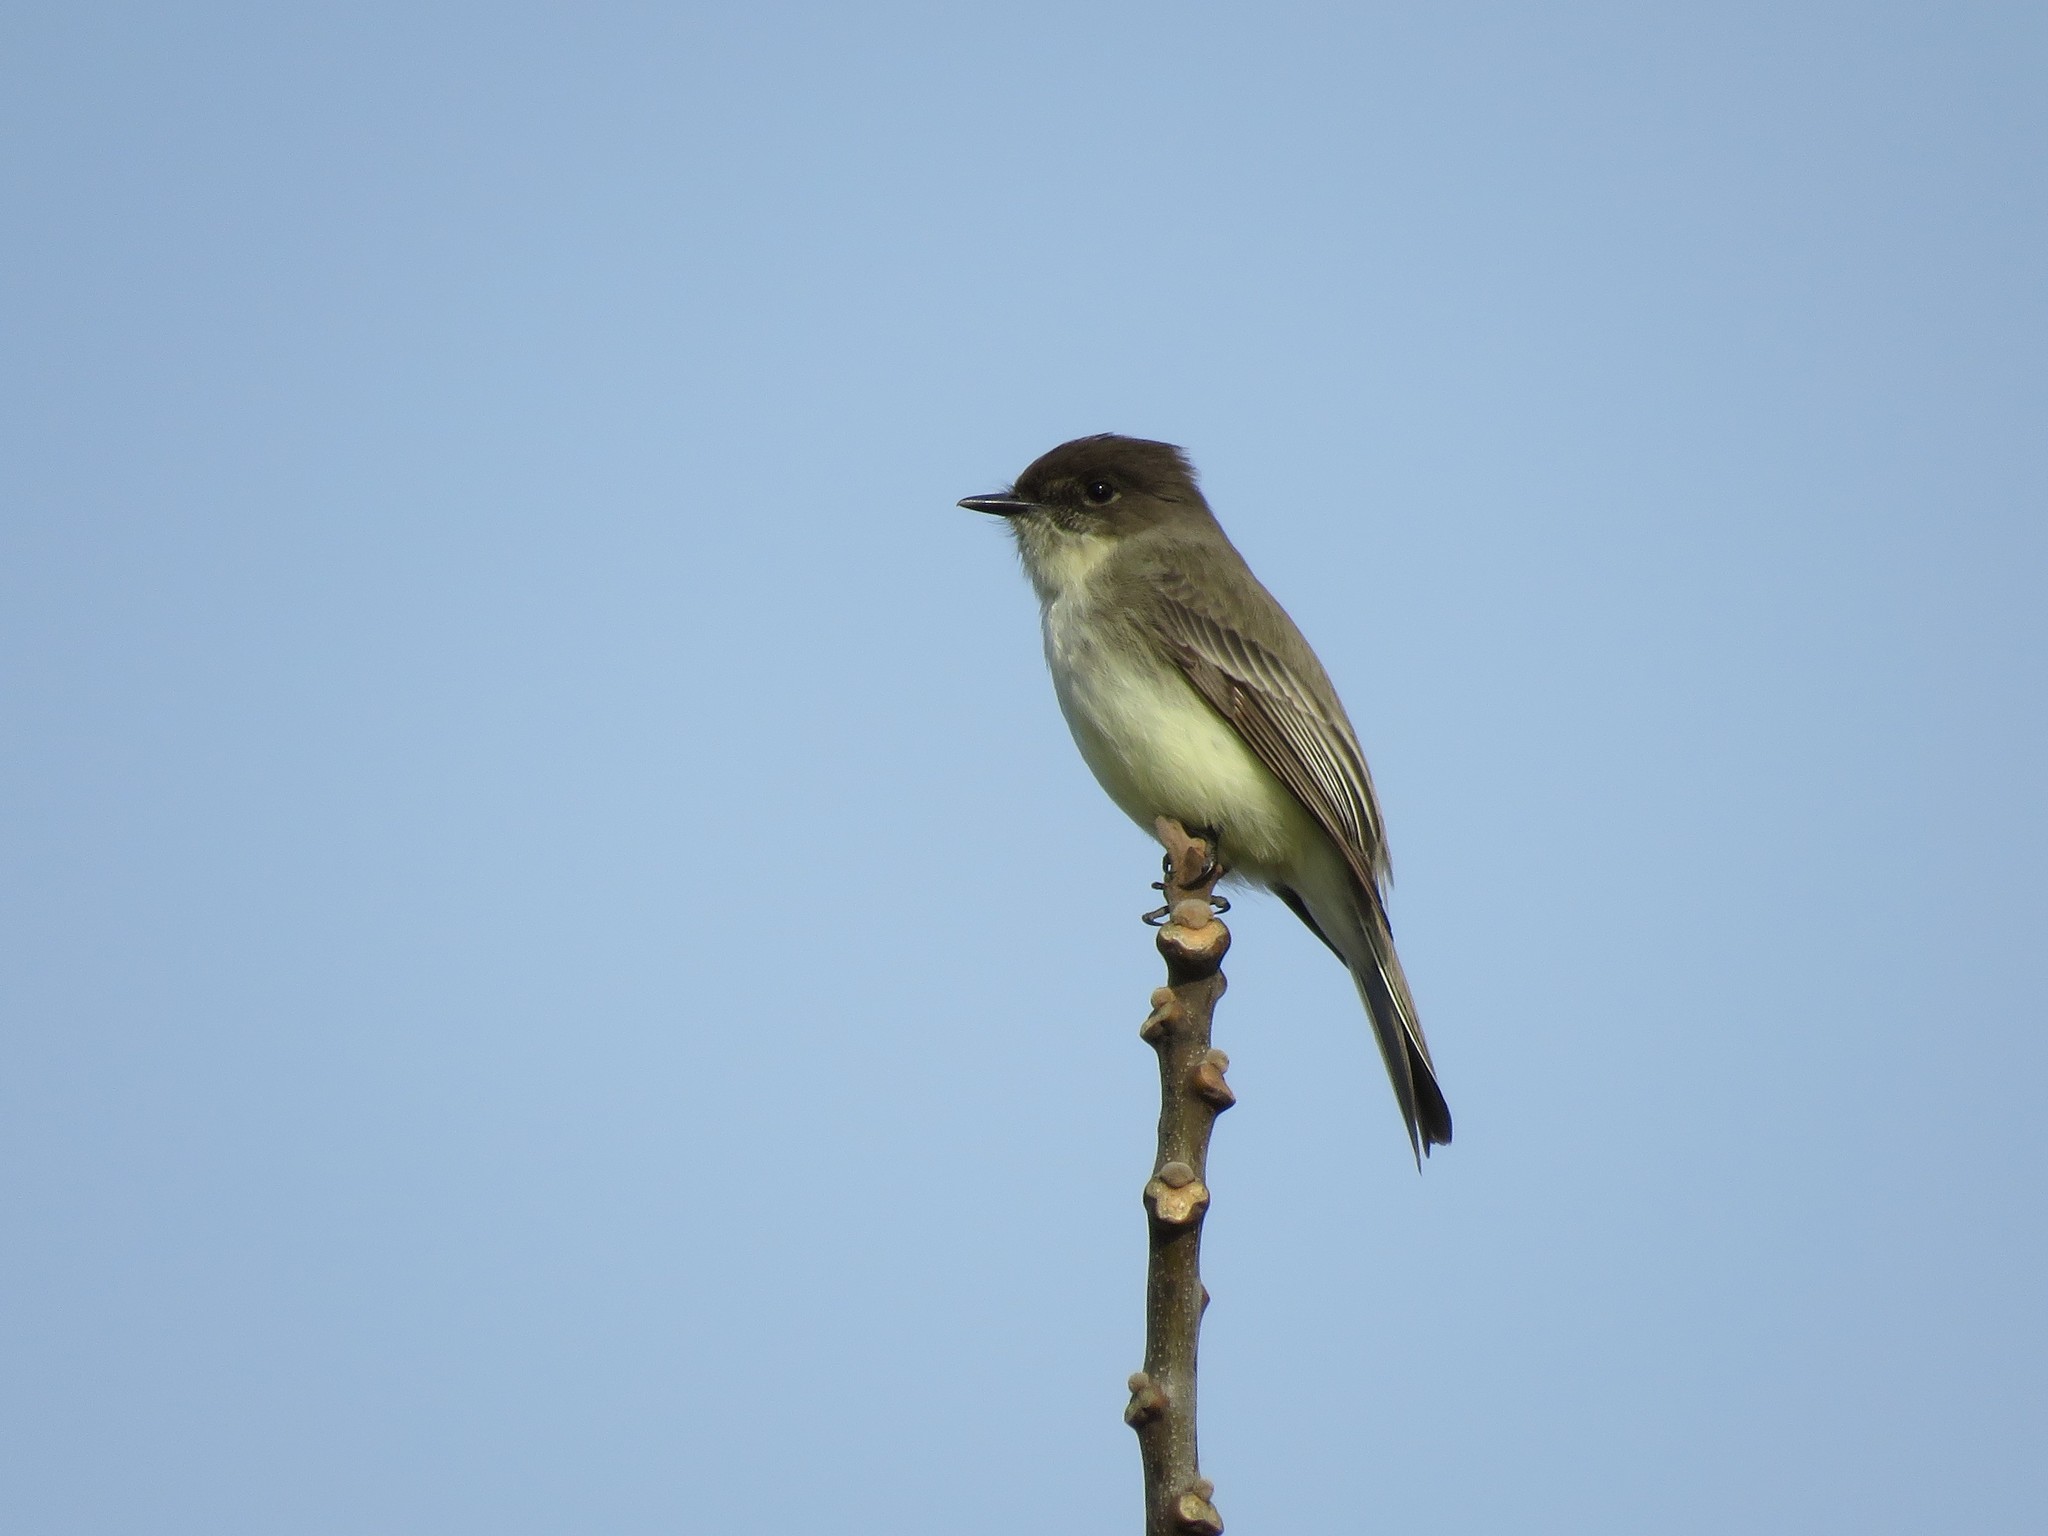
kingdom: Animalia
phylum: Chordata
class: Aves
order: Passeriformes
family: Tyrannidae
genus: Sayornis
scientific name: Sayornis phoebe
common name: Eastern phoebe
